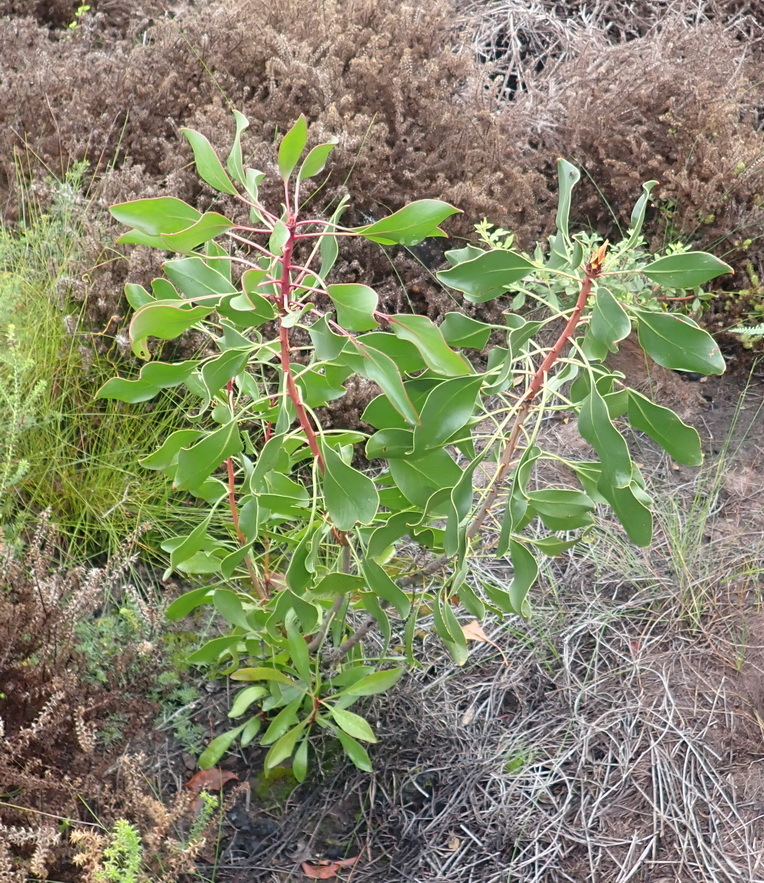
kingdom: Plantae
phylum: Tracheophyta
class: Magnoliopsida
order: Proteales
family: Proteaceae
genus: Protea
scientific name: Protea cynaroides
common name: King protea
